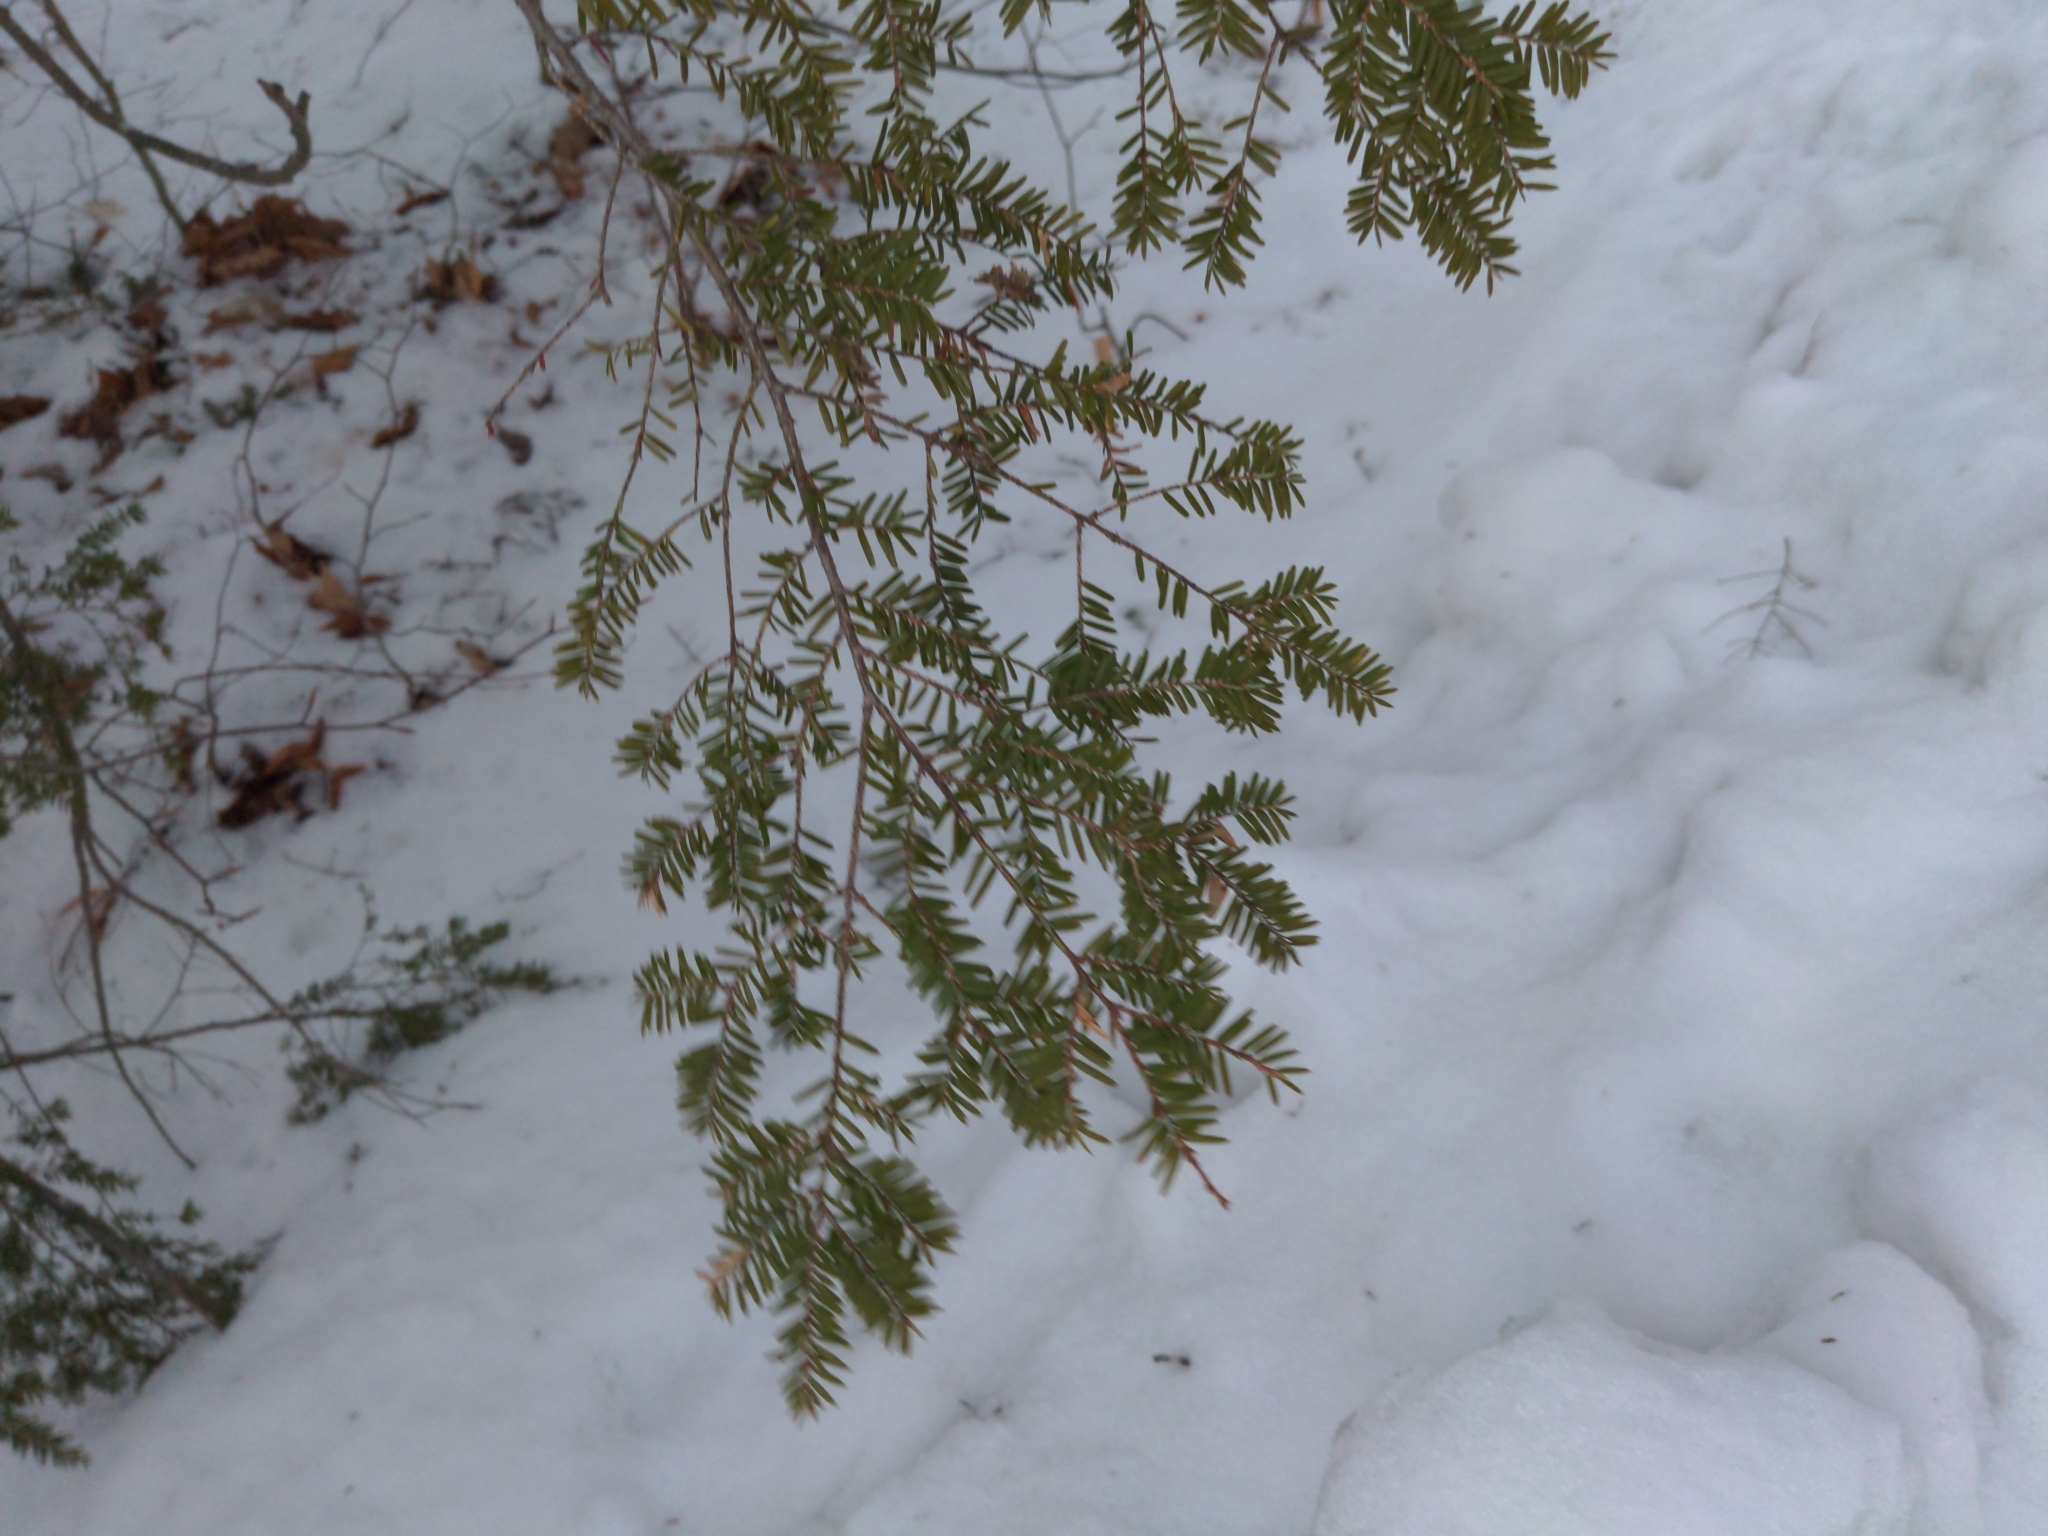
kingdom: Plantae
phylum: Tracheophyta
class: Pinopsida
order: Pinales
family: Pinaceae
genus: Tsuga
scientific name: Tsuga canadensis
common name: Eastern hemlock
